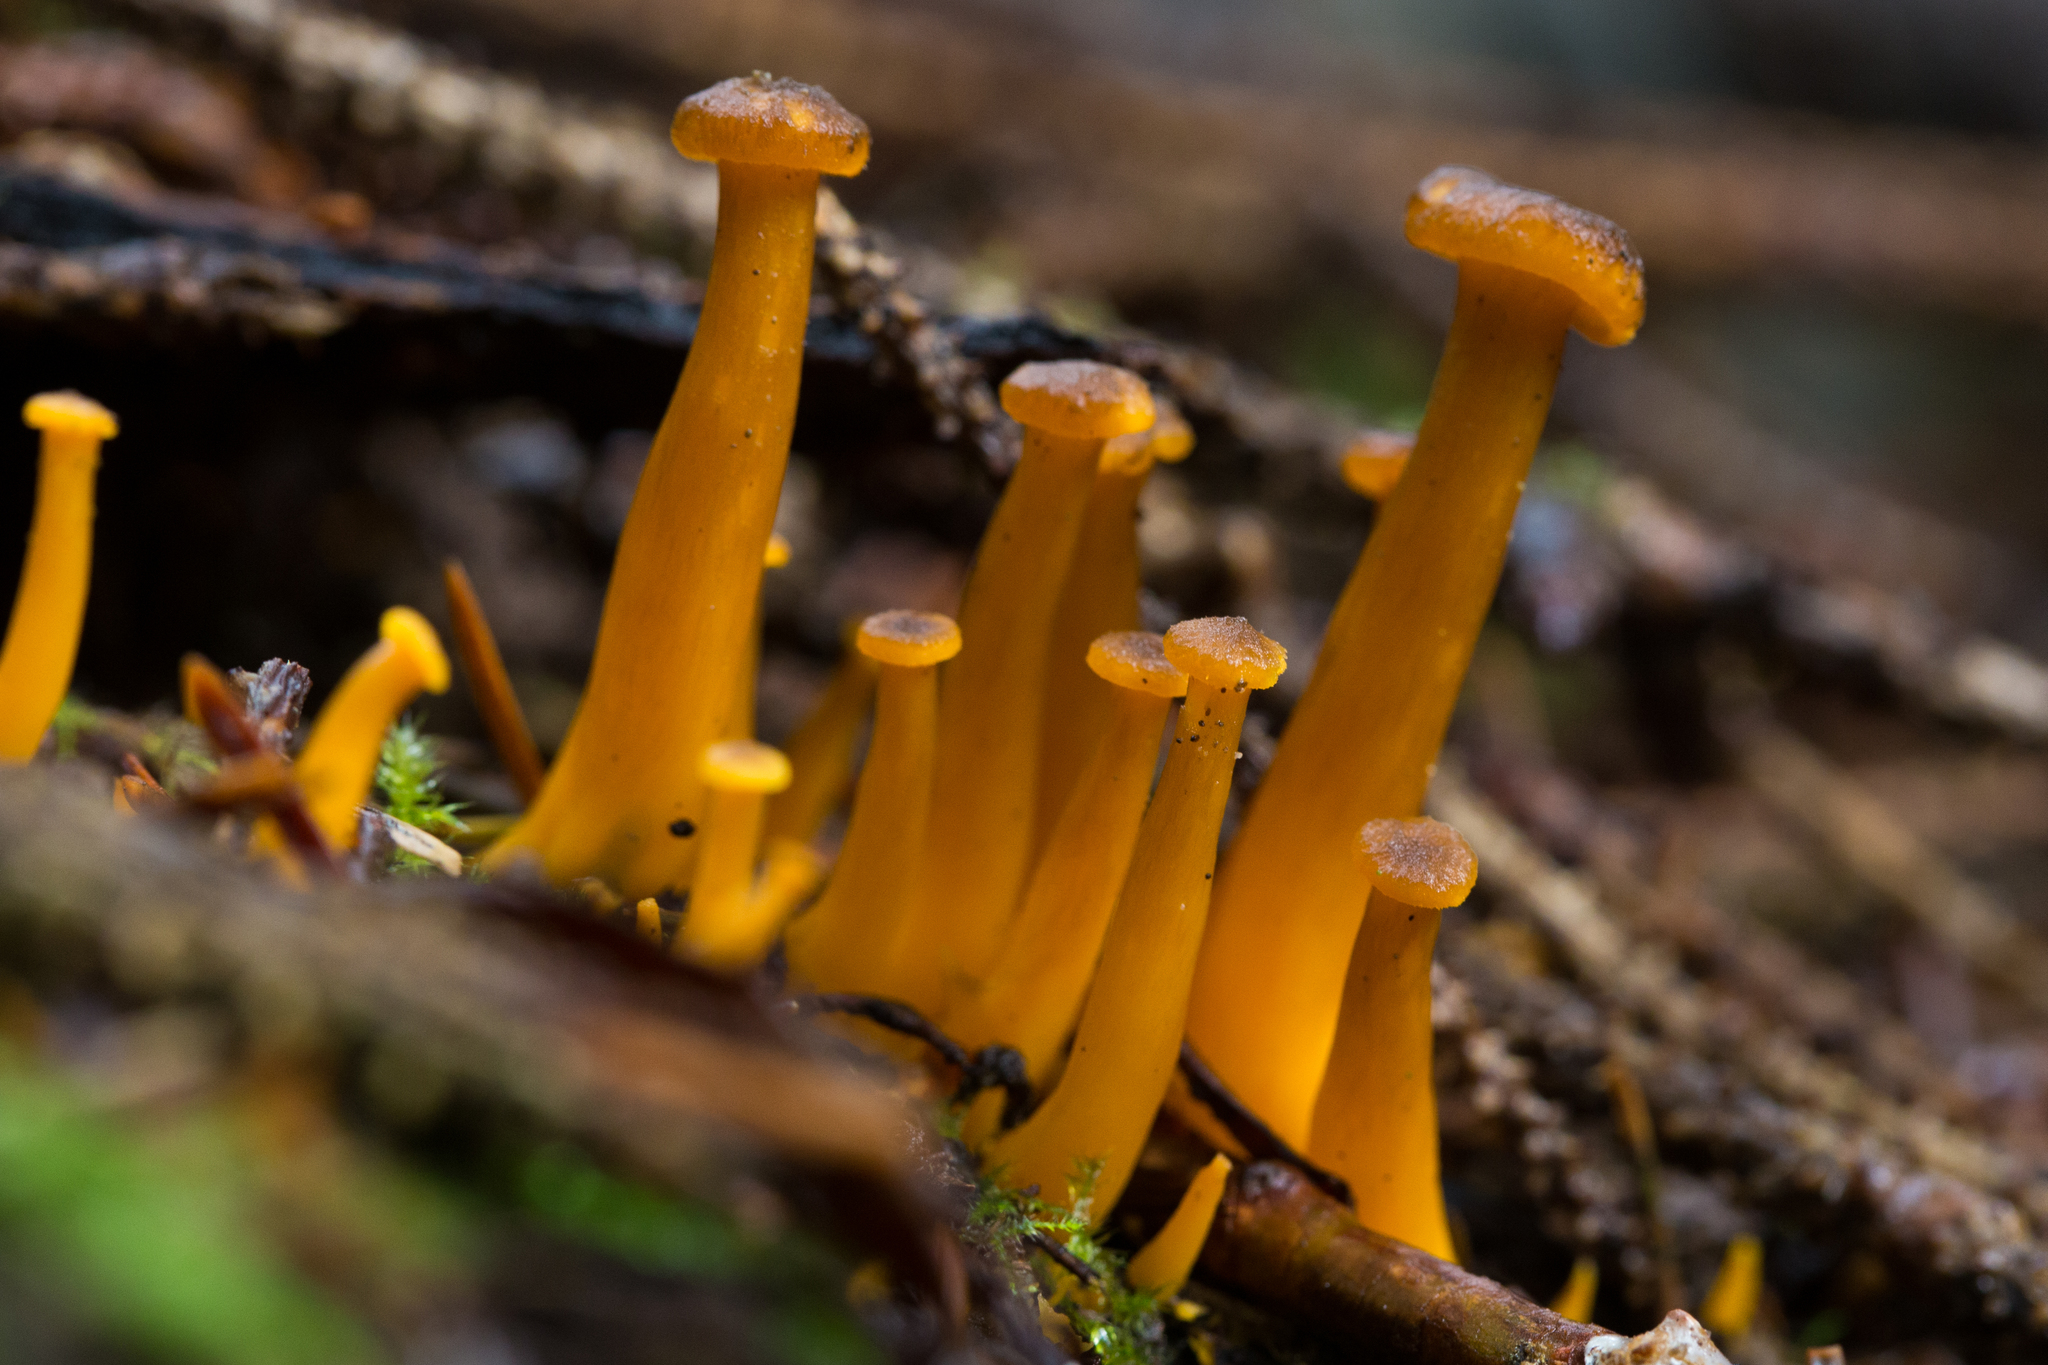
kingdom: Fungi
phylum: Basidiomycota
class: Agaricomycetes
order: Cantharellales
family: Hydnaceae
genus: Craterellus
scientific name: Craterellus tubaeformis
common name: Yellowfoot
